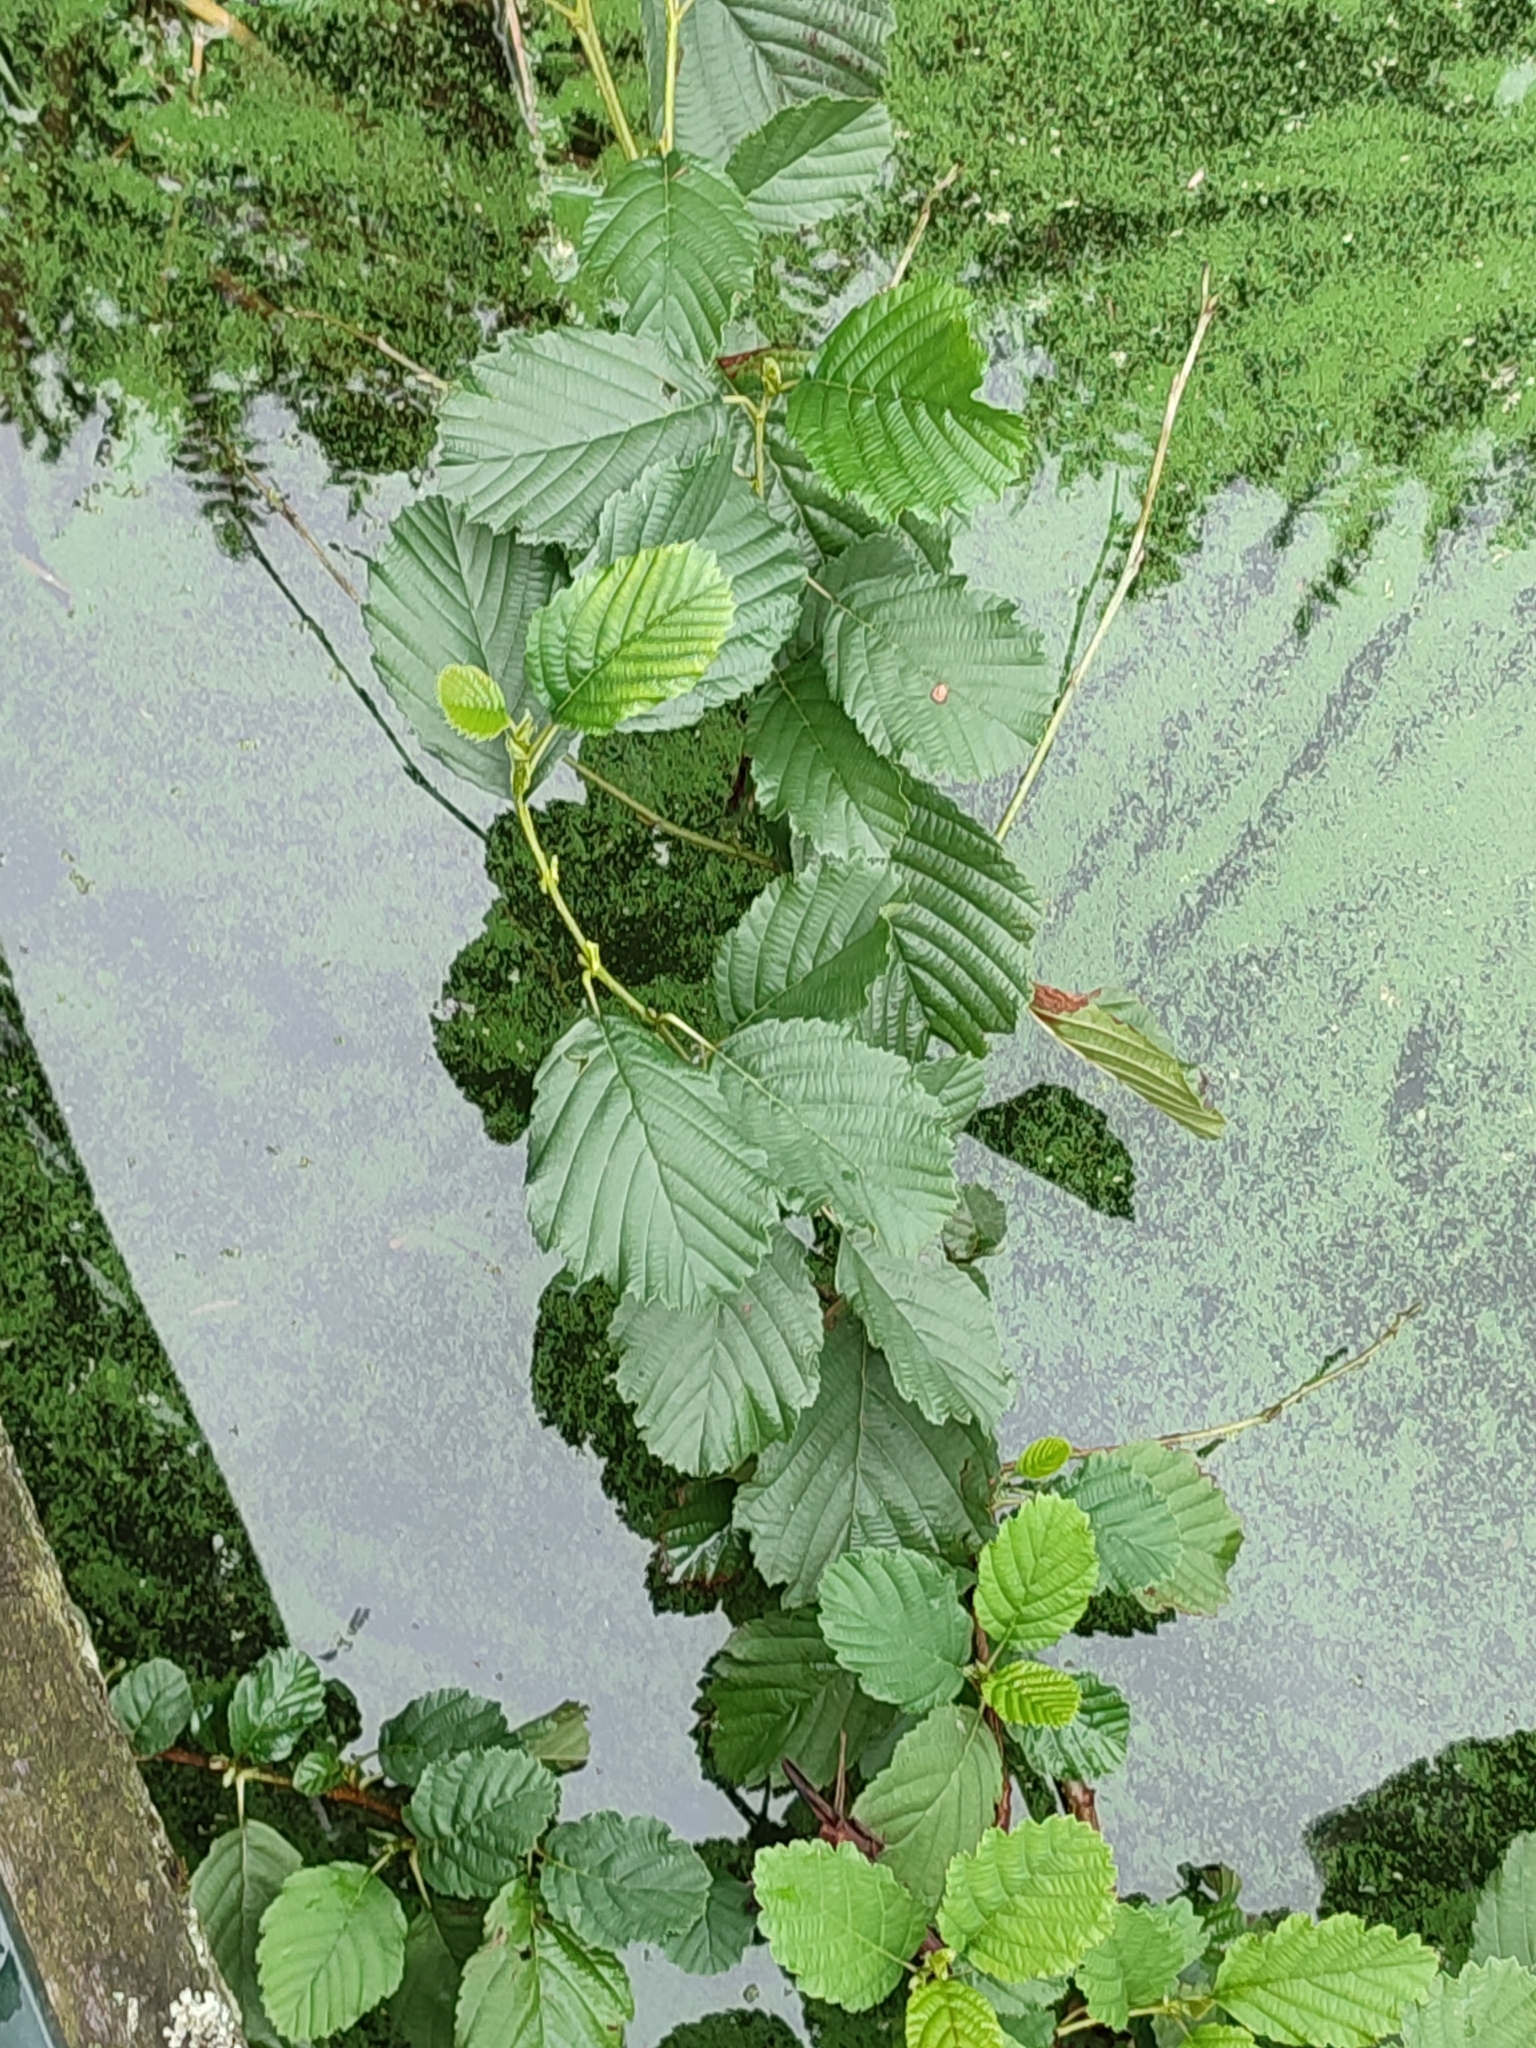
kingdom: Plantae
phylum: Tracheophyta
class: Magnoliopsida
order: Fagales
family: Betulaceae
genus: Alnus
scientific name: Alnus glutinosa
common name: Black alder
